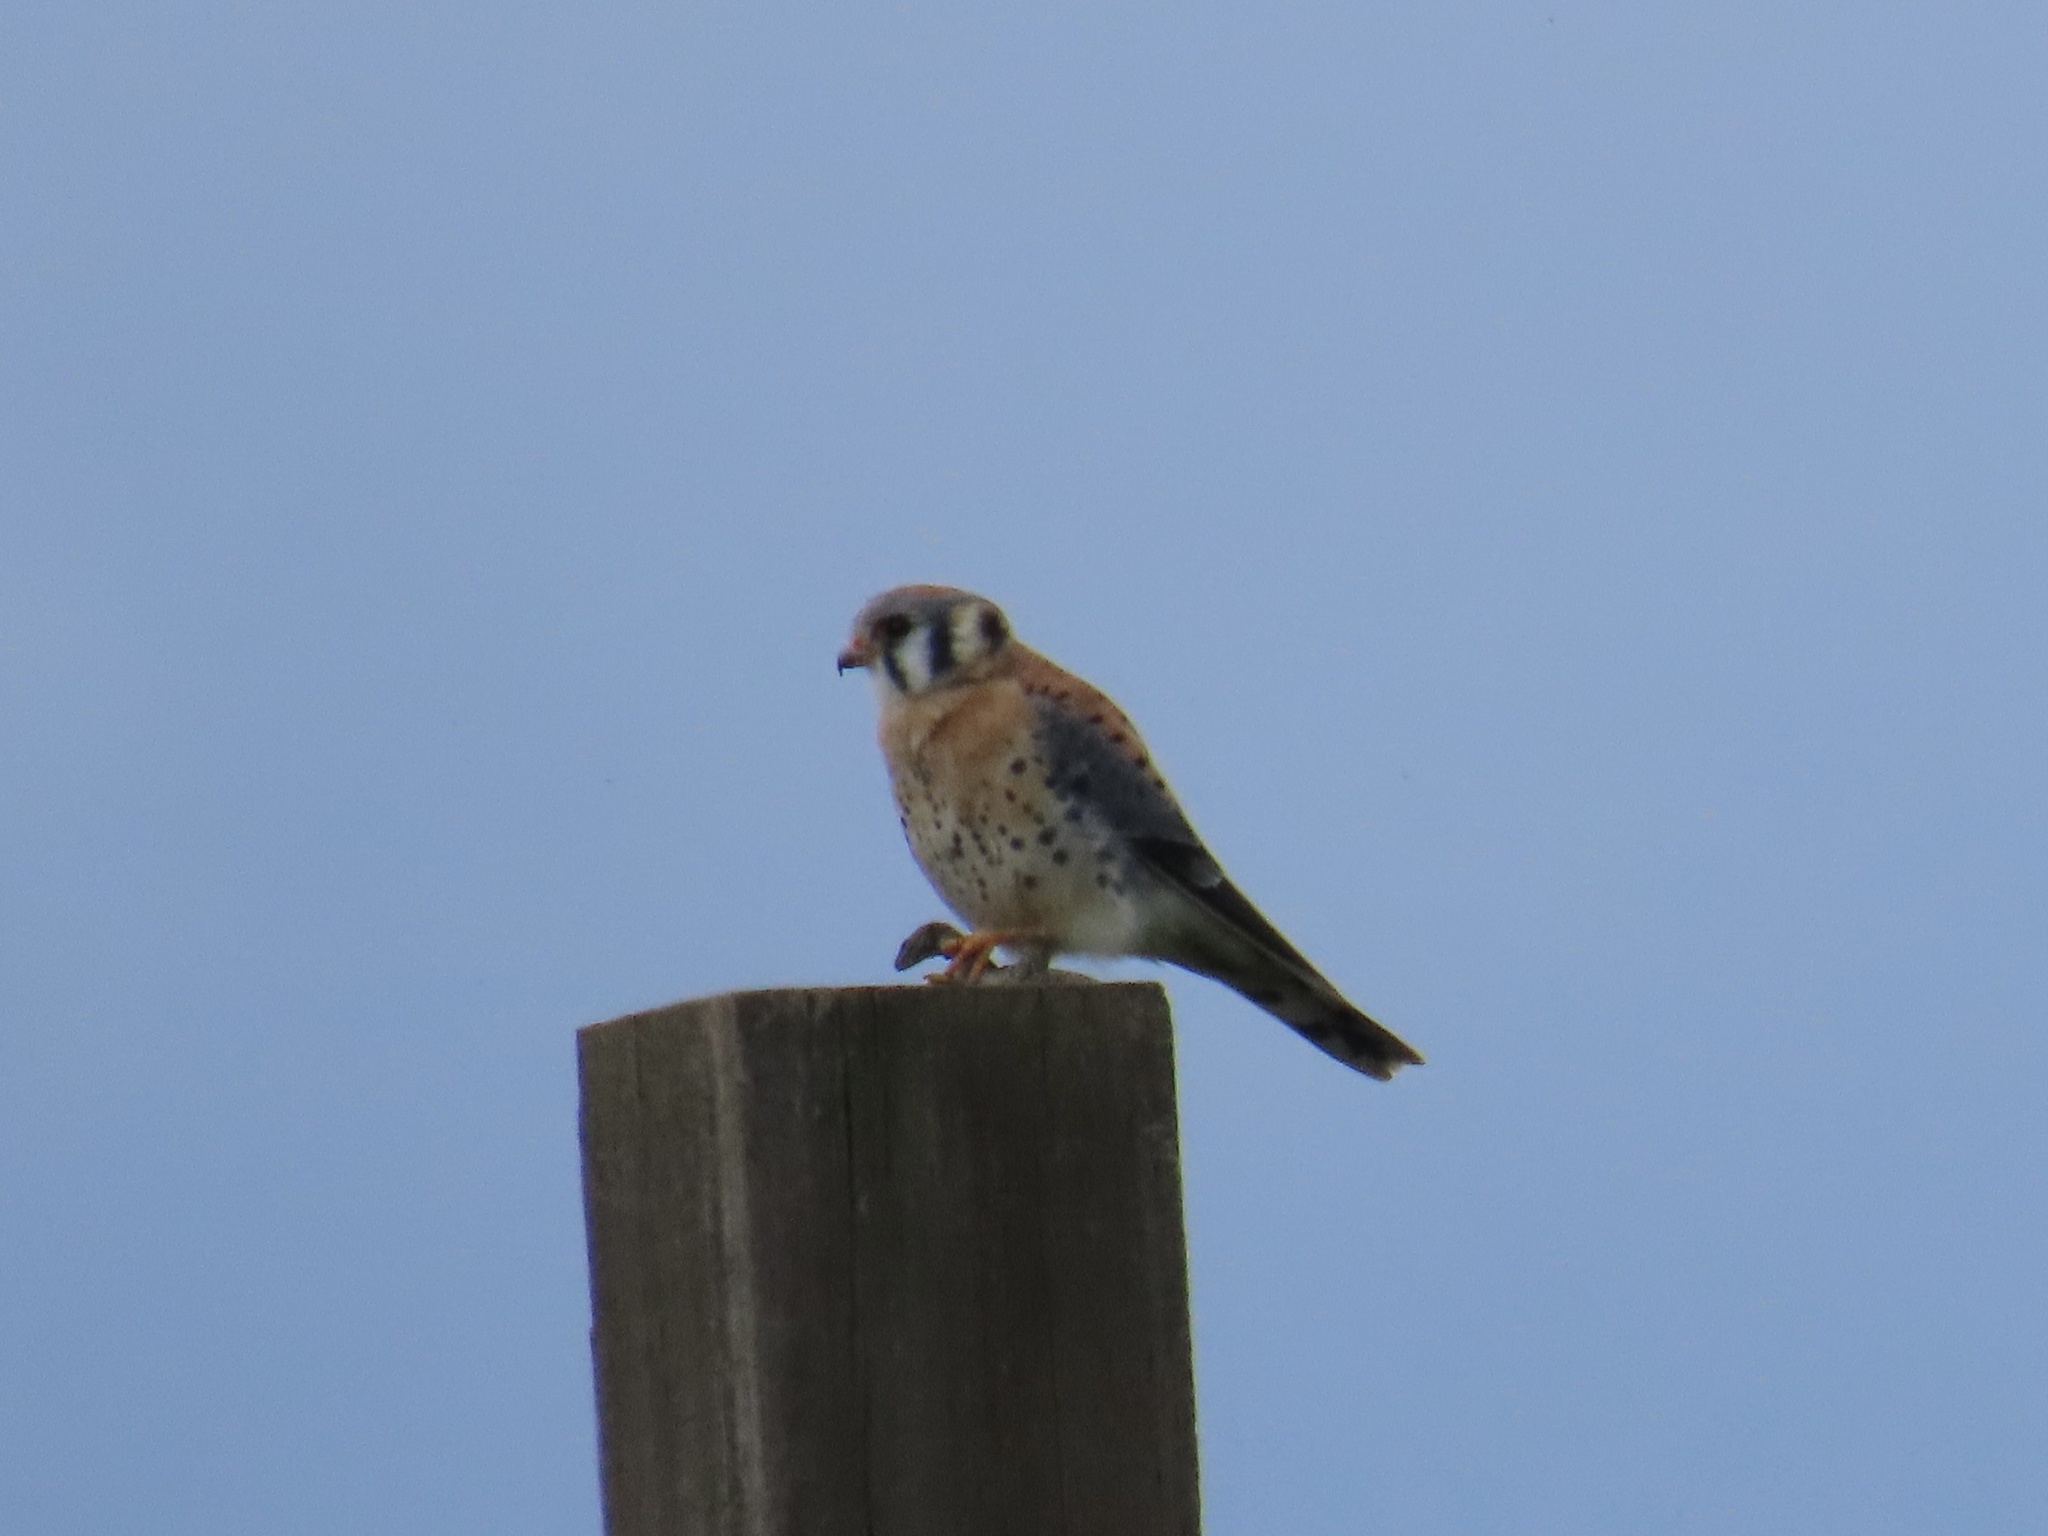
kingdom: Animalia
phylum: Chordata
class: Aves
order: Falconiformes
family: Falconidae
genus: Falco
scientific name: Falco sparverius
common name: American kestrel
